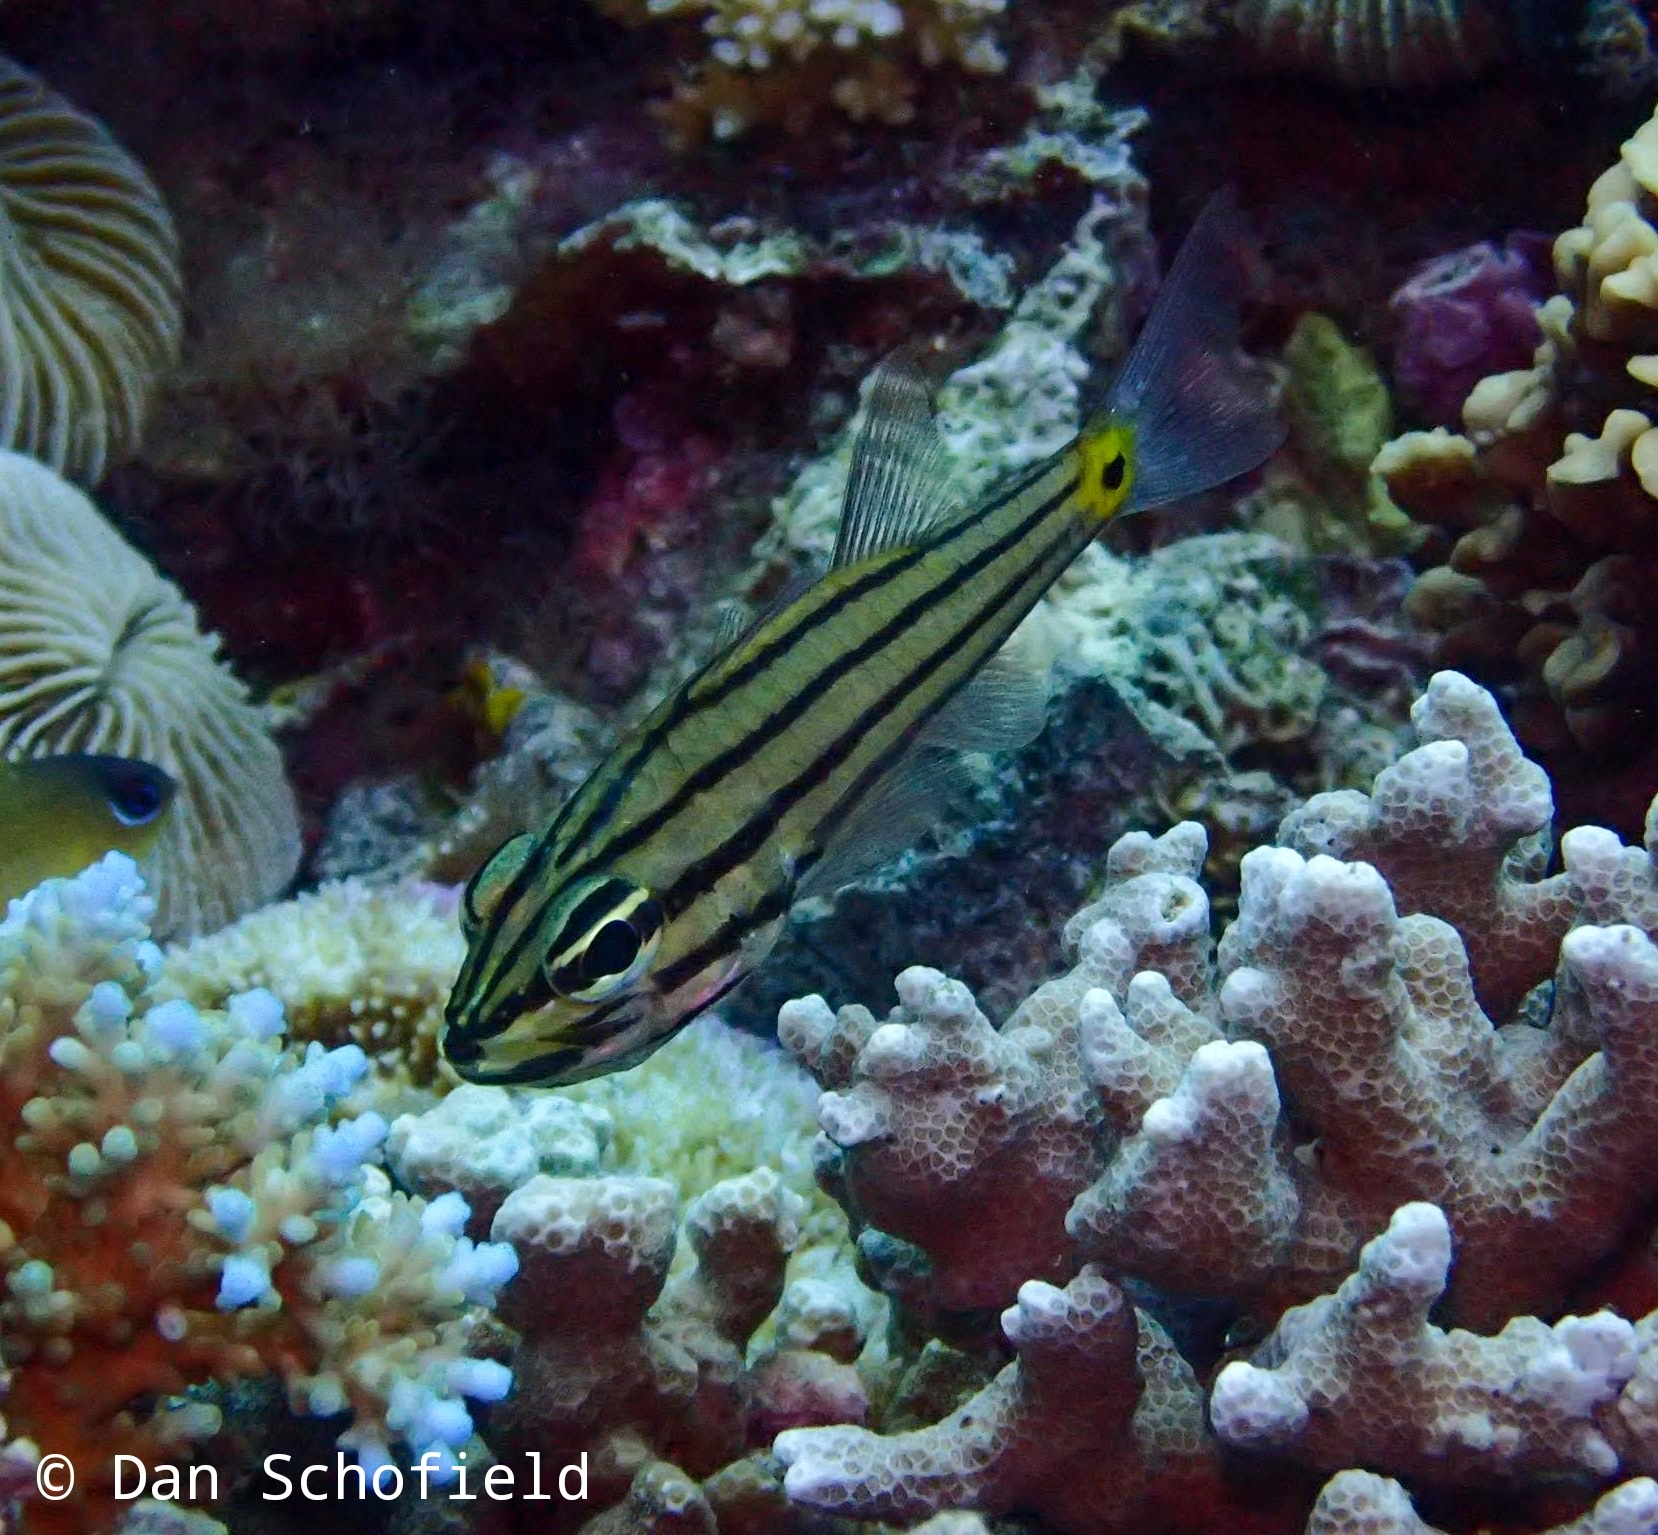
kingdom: Animalia
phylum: Chordata
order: Perciformes
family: Apogonidae
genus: Cheilodipterus
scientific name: Cheilodipterus quinquelineatus
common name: Five-lined cardinalfish
